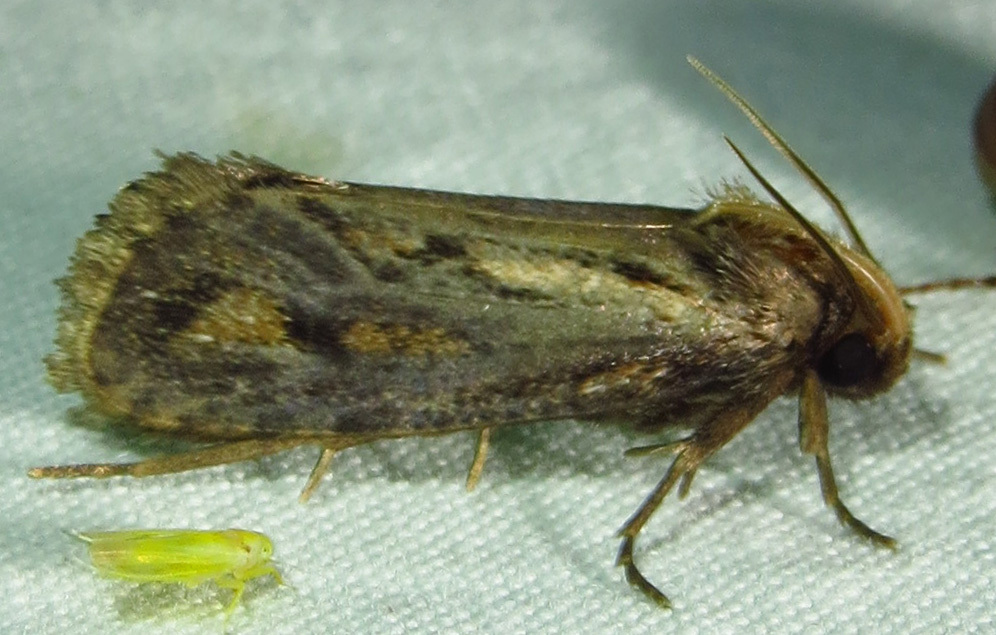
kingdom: Animalia
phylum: Arthropoda
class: Insecta
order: Lepidoptera
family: Tineidae
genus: Acrolophus
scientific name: Acrolophus popeanella
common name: Clemens' grass tubeworm moth
